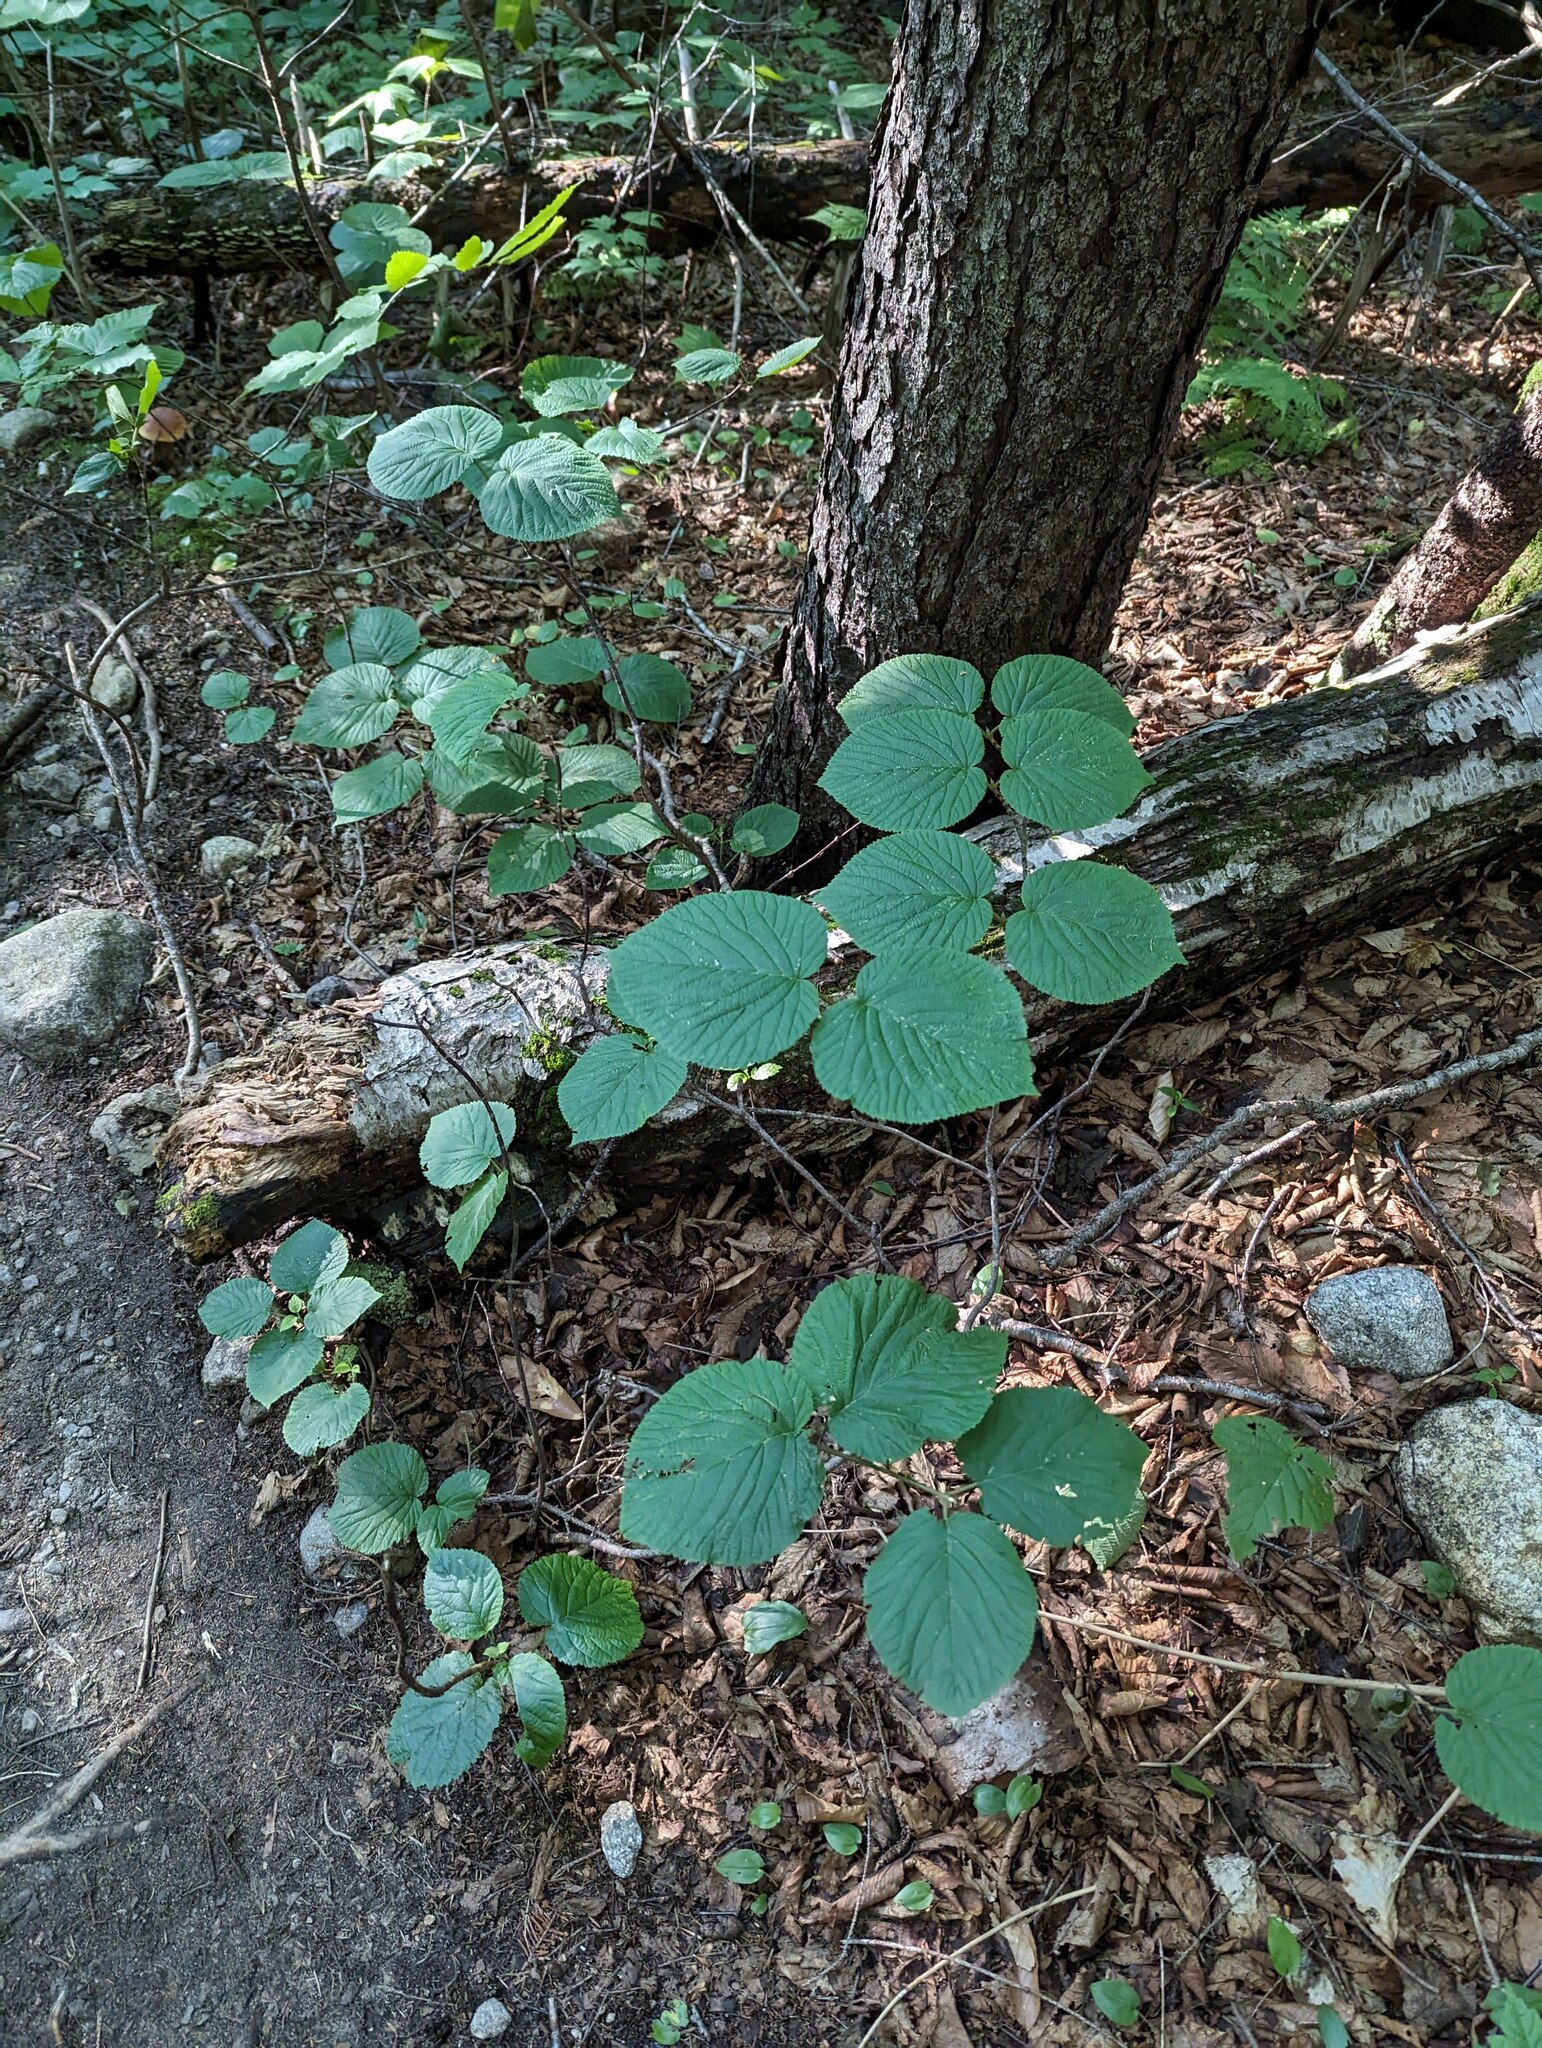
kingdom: Plantae
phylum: Tracheophyta
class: Magnoliopsida
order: Dipsacales
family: Viburnaceae
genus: Viburnum
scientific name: Viburnum lantanoides
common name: Hobblebush
